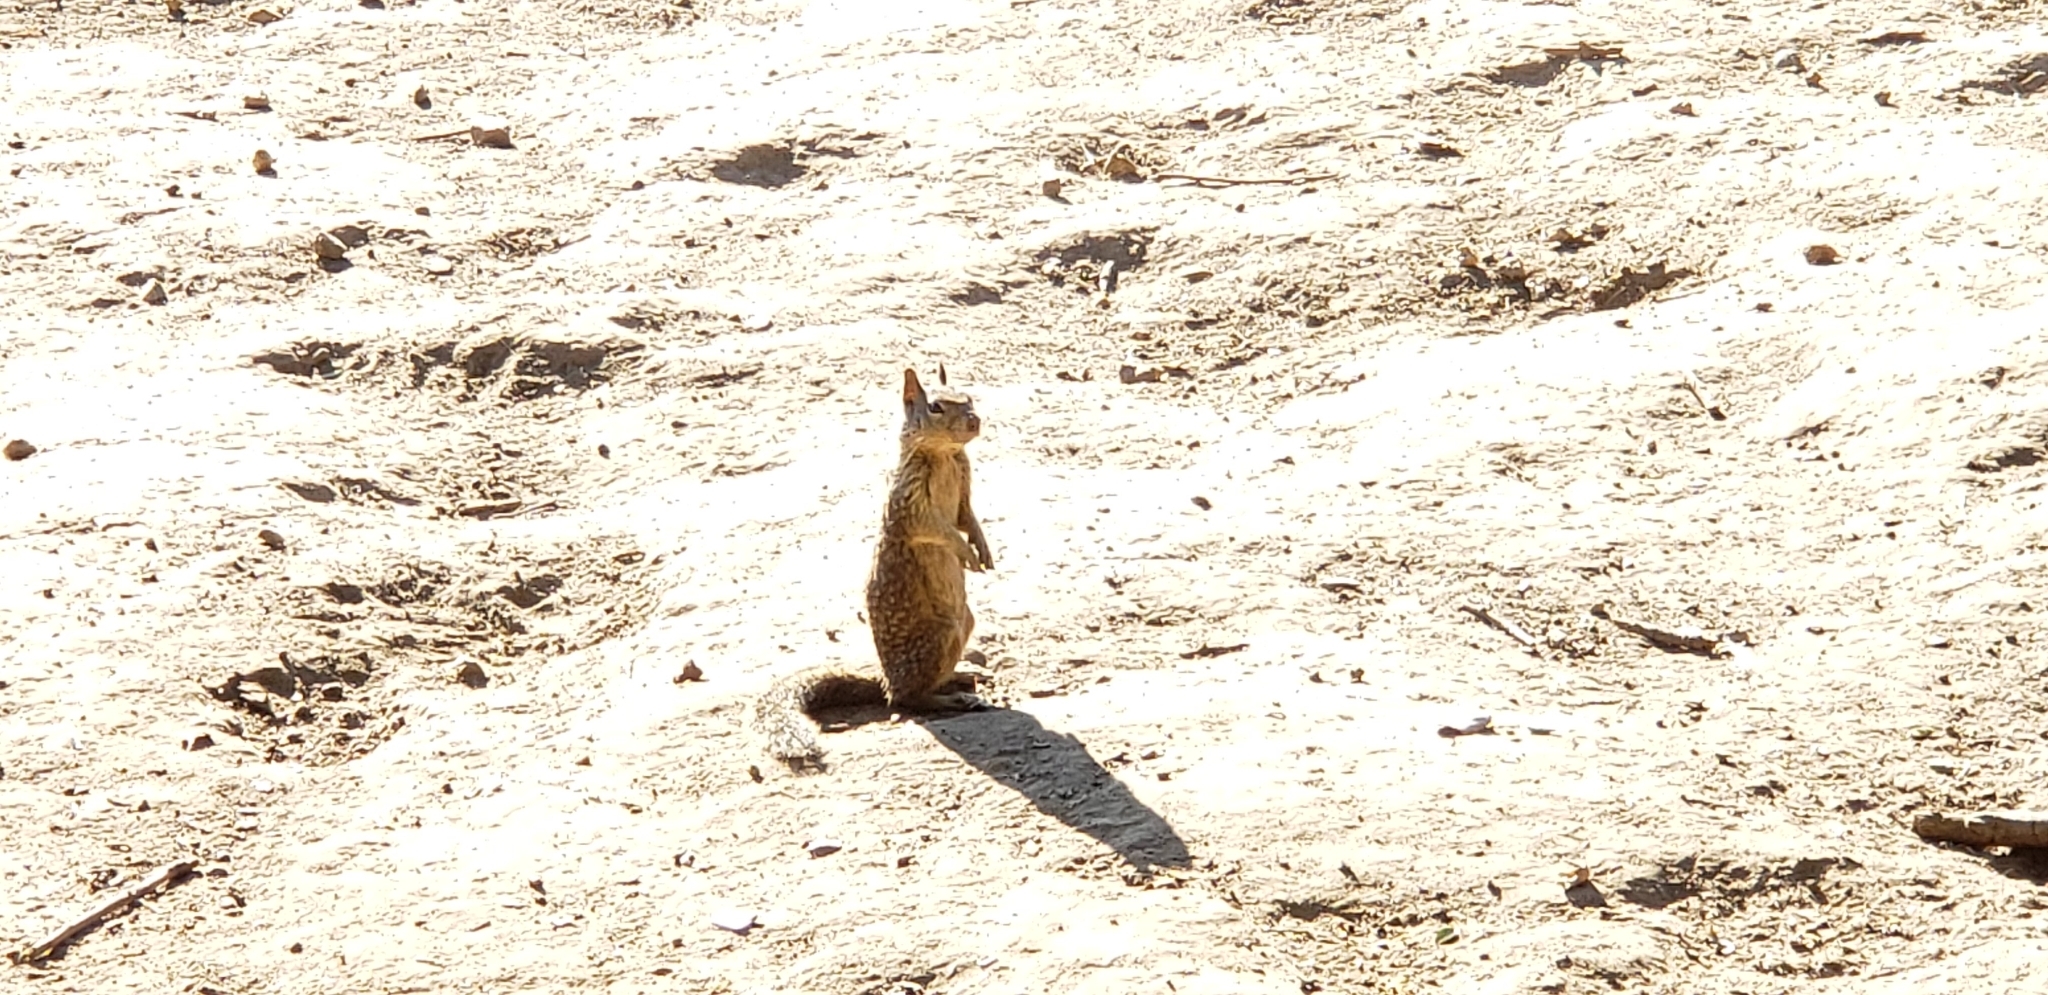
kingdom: Animalia
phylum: Chordata
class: Mammalia
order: Rodentia
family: Sciuridae
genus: Otospermophilus
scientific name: Otospermophilus beecheyi
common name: California ground squirrel
